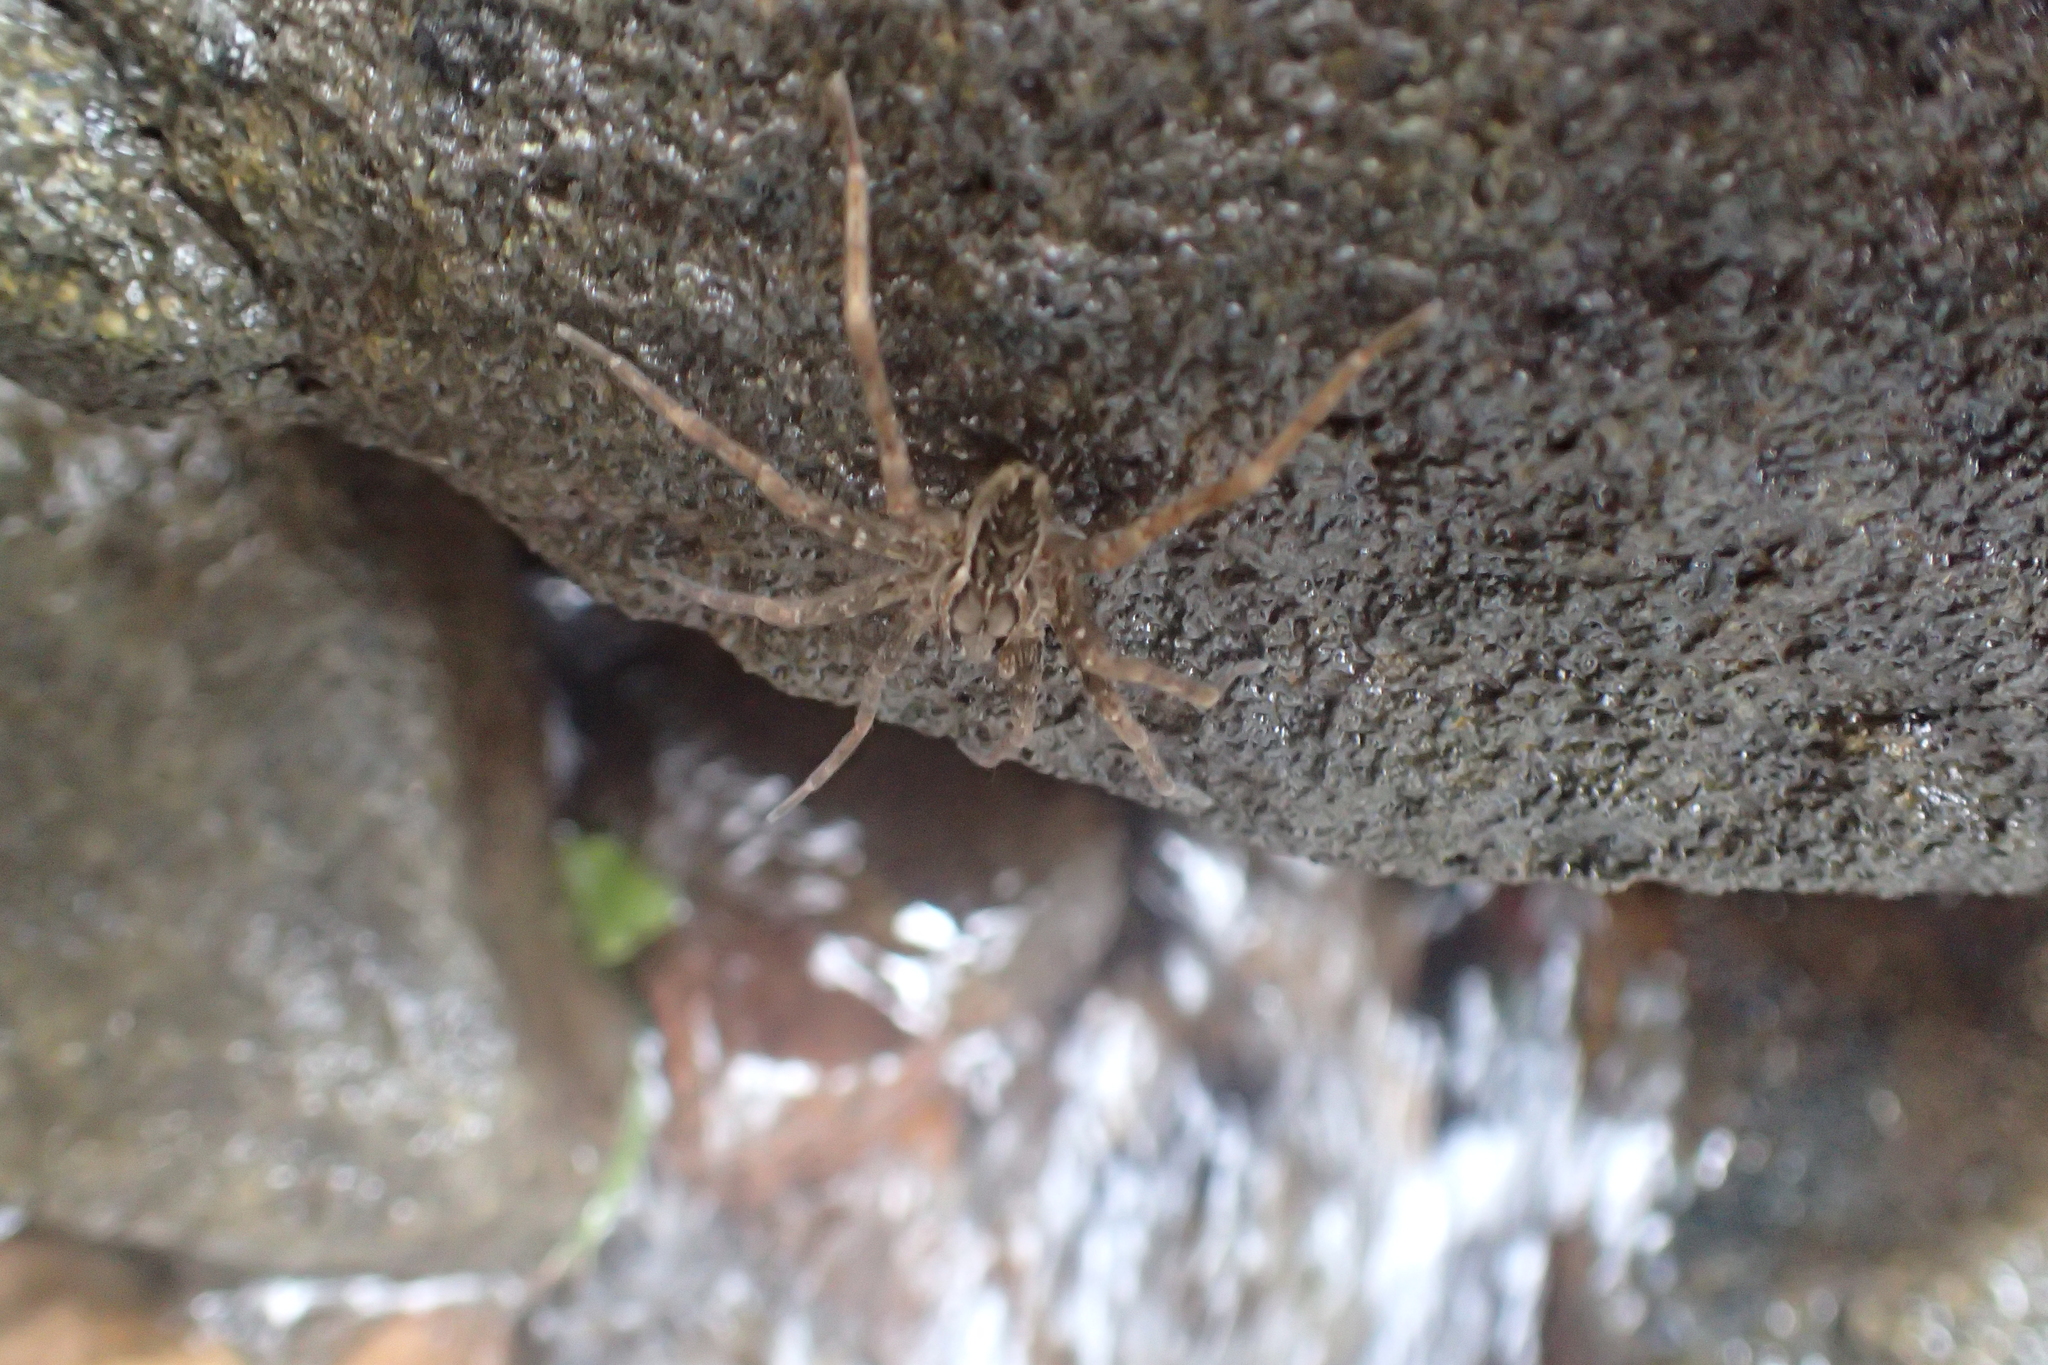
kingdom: Animalia
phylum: Arthropoda
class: Arachnida
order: Araneae
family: Pisauridae
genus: Dolomedes
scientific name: Dolomedes dondalei
